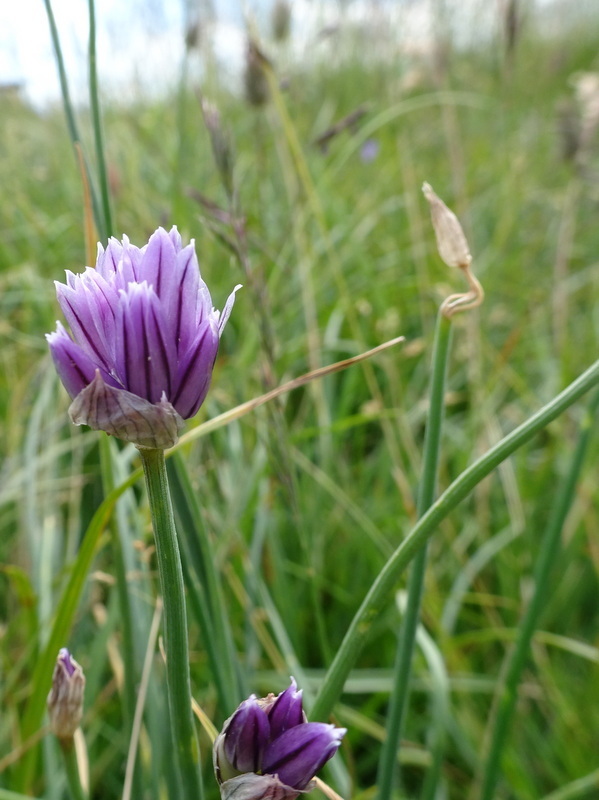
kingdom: Plantae
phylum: Tracheophyta
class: Liliopsida
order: Asparagales
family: Amaryllidaceae
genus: Allium
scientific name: Allium schoenoprasum
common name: Chives
